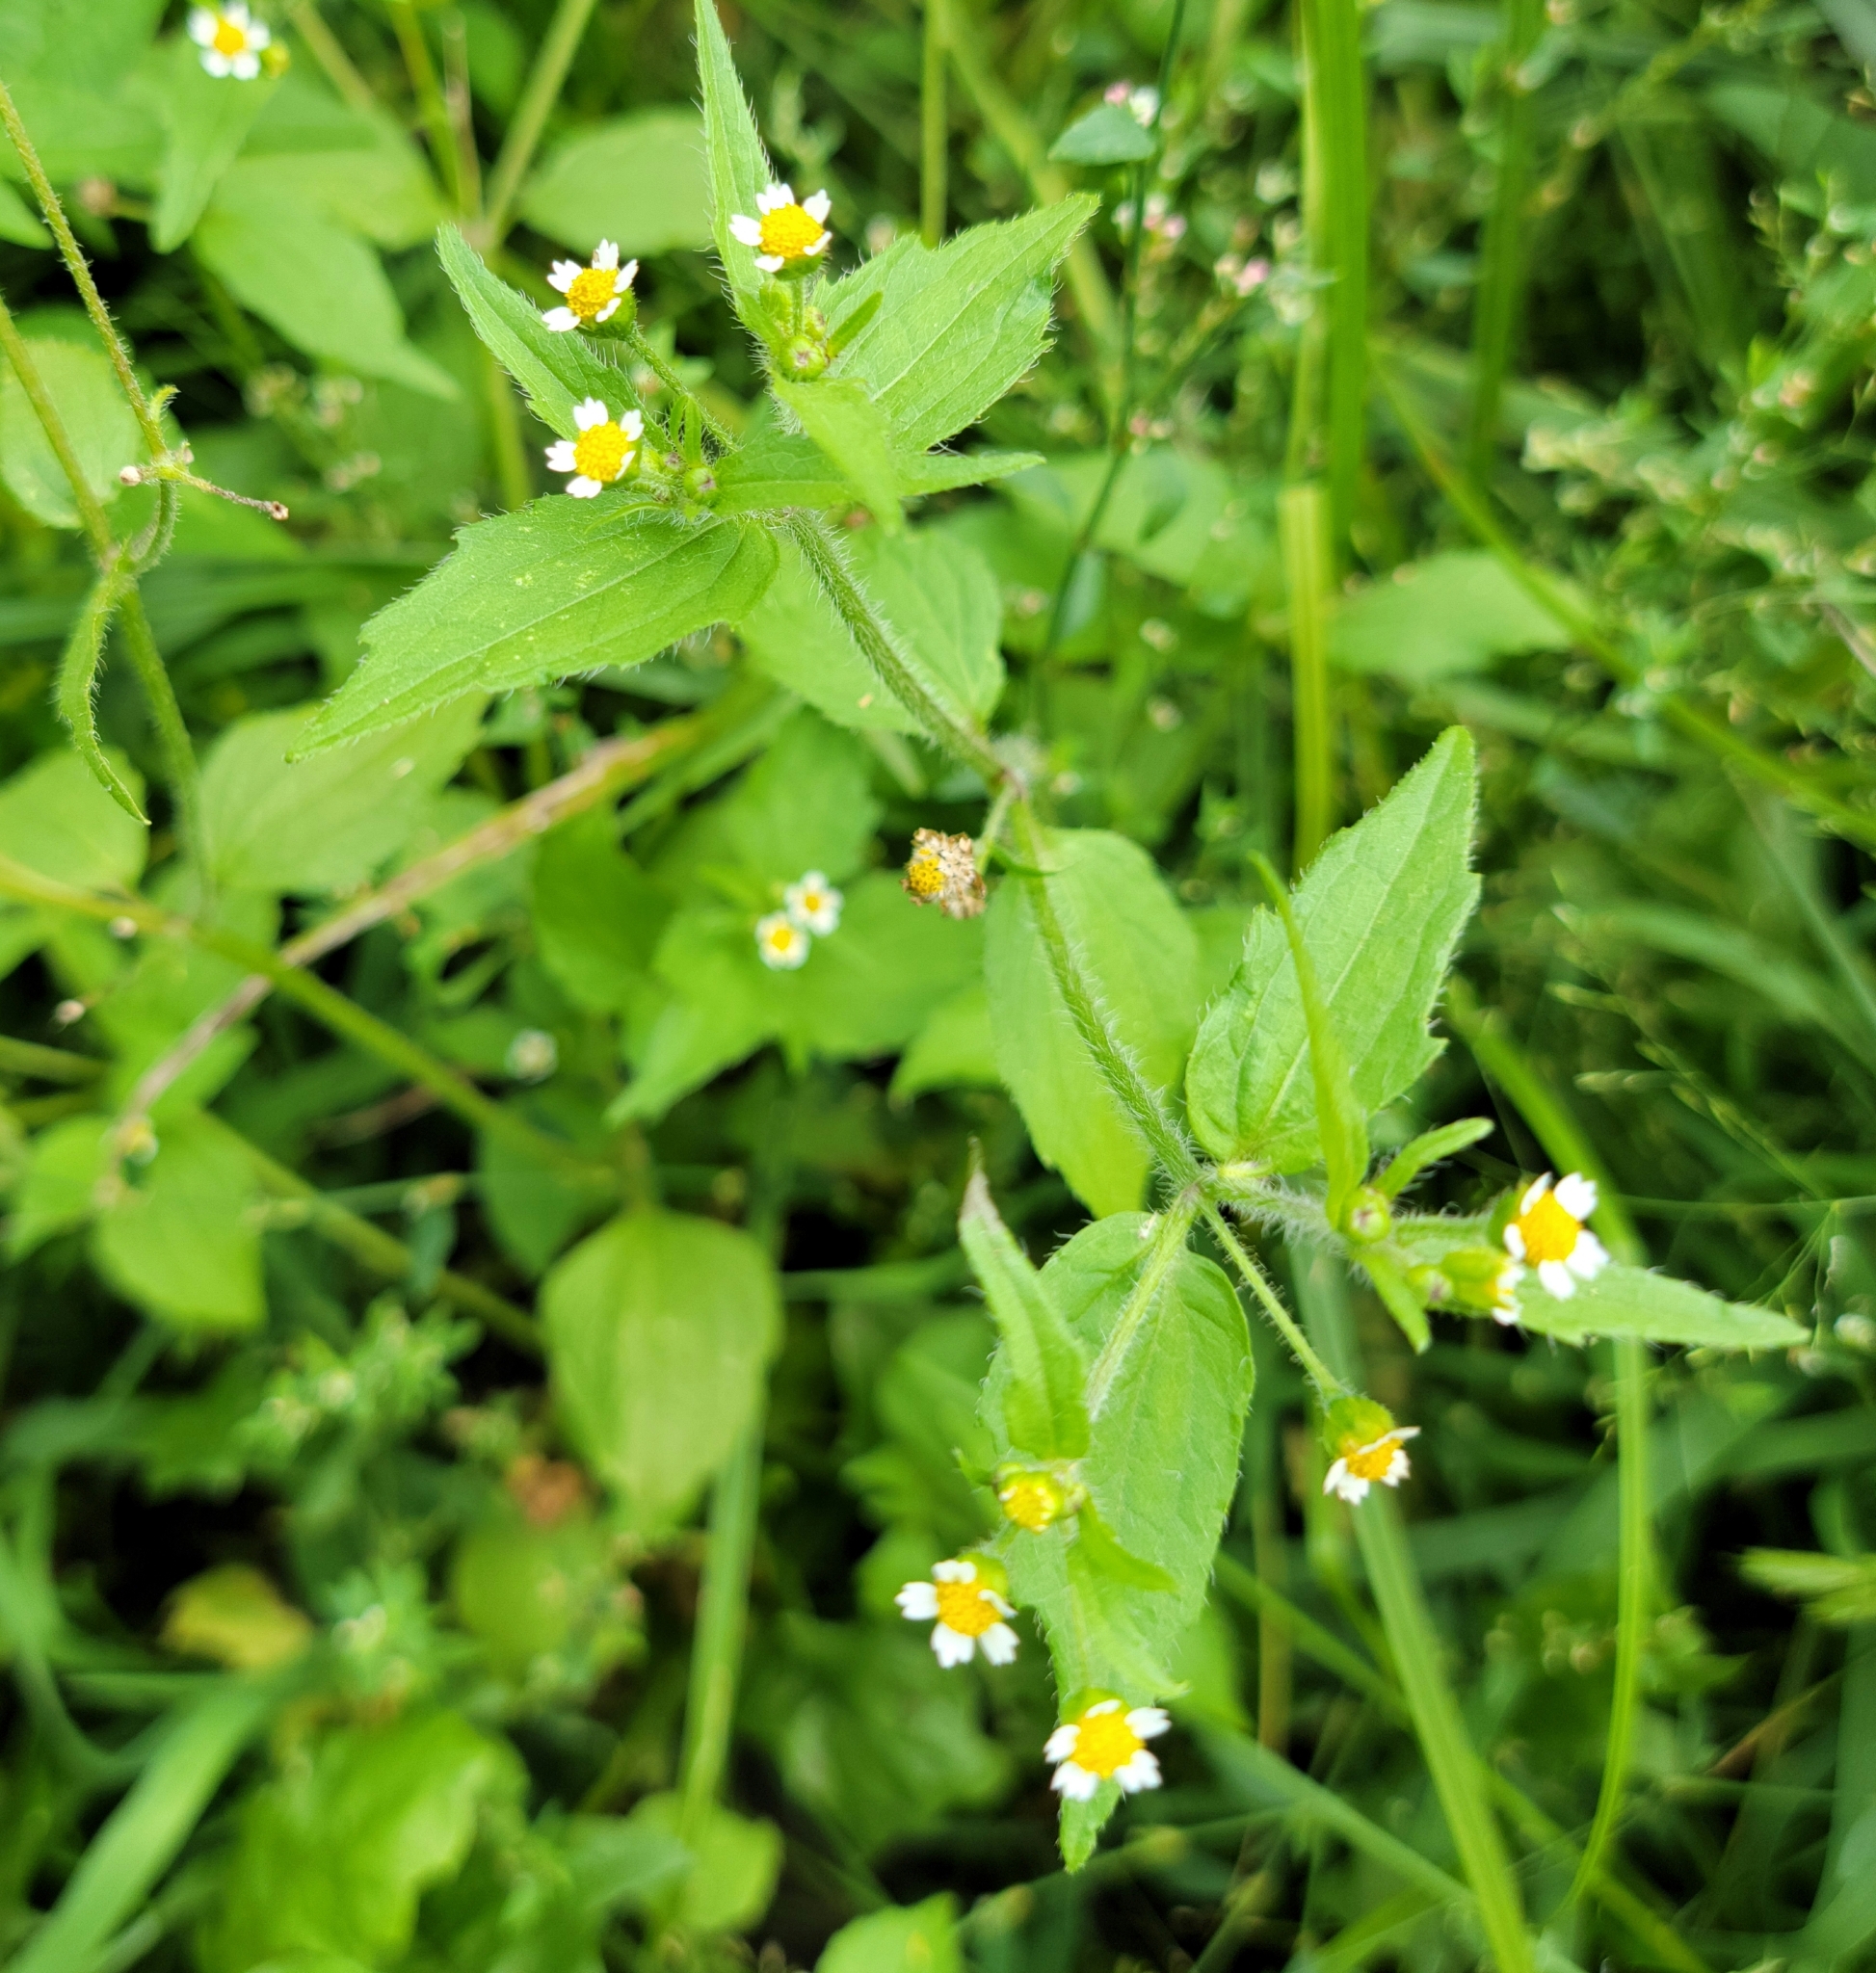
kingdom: Plantae
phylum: Tracheophyta
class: Magnoliopsida
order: Asterales
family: Asteraceae
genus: Galinsoga
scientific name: Galinsoga quadriradiata
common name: Shaggy soldier
